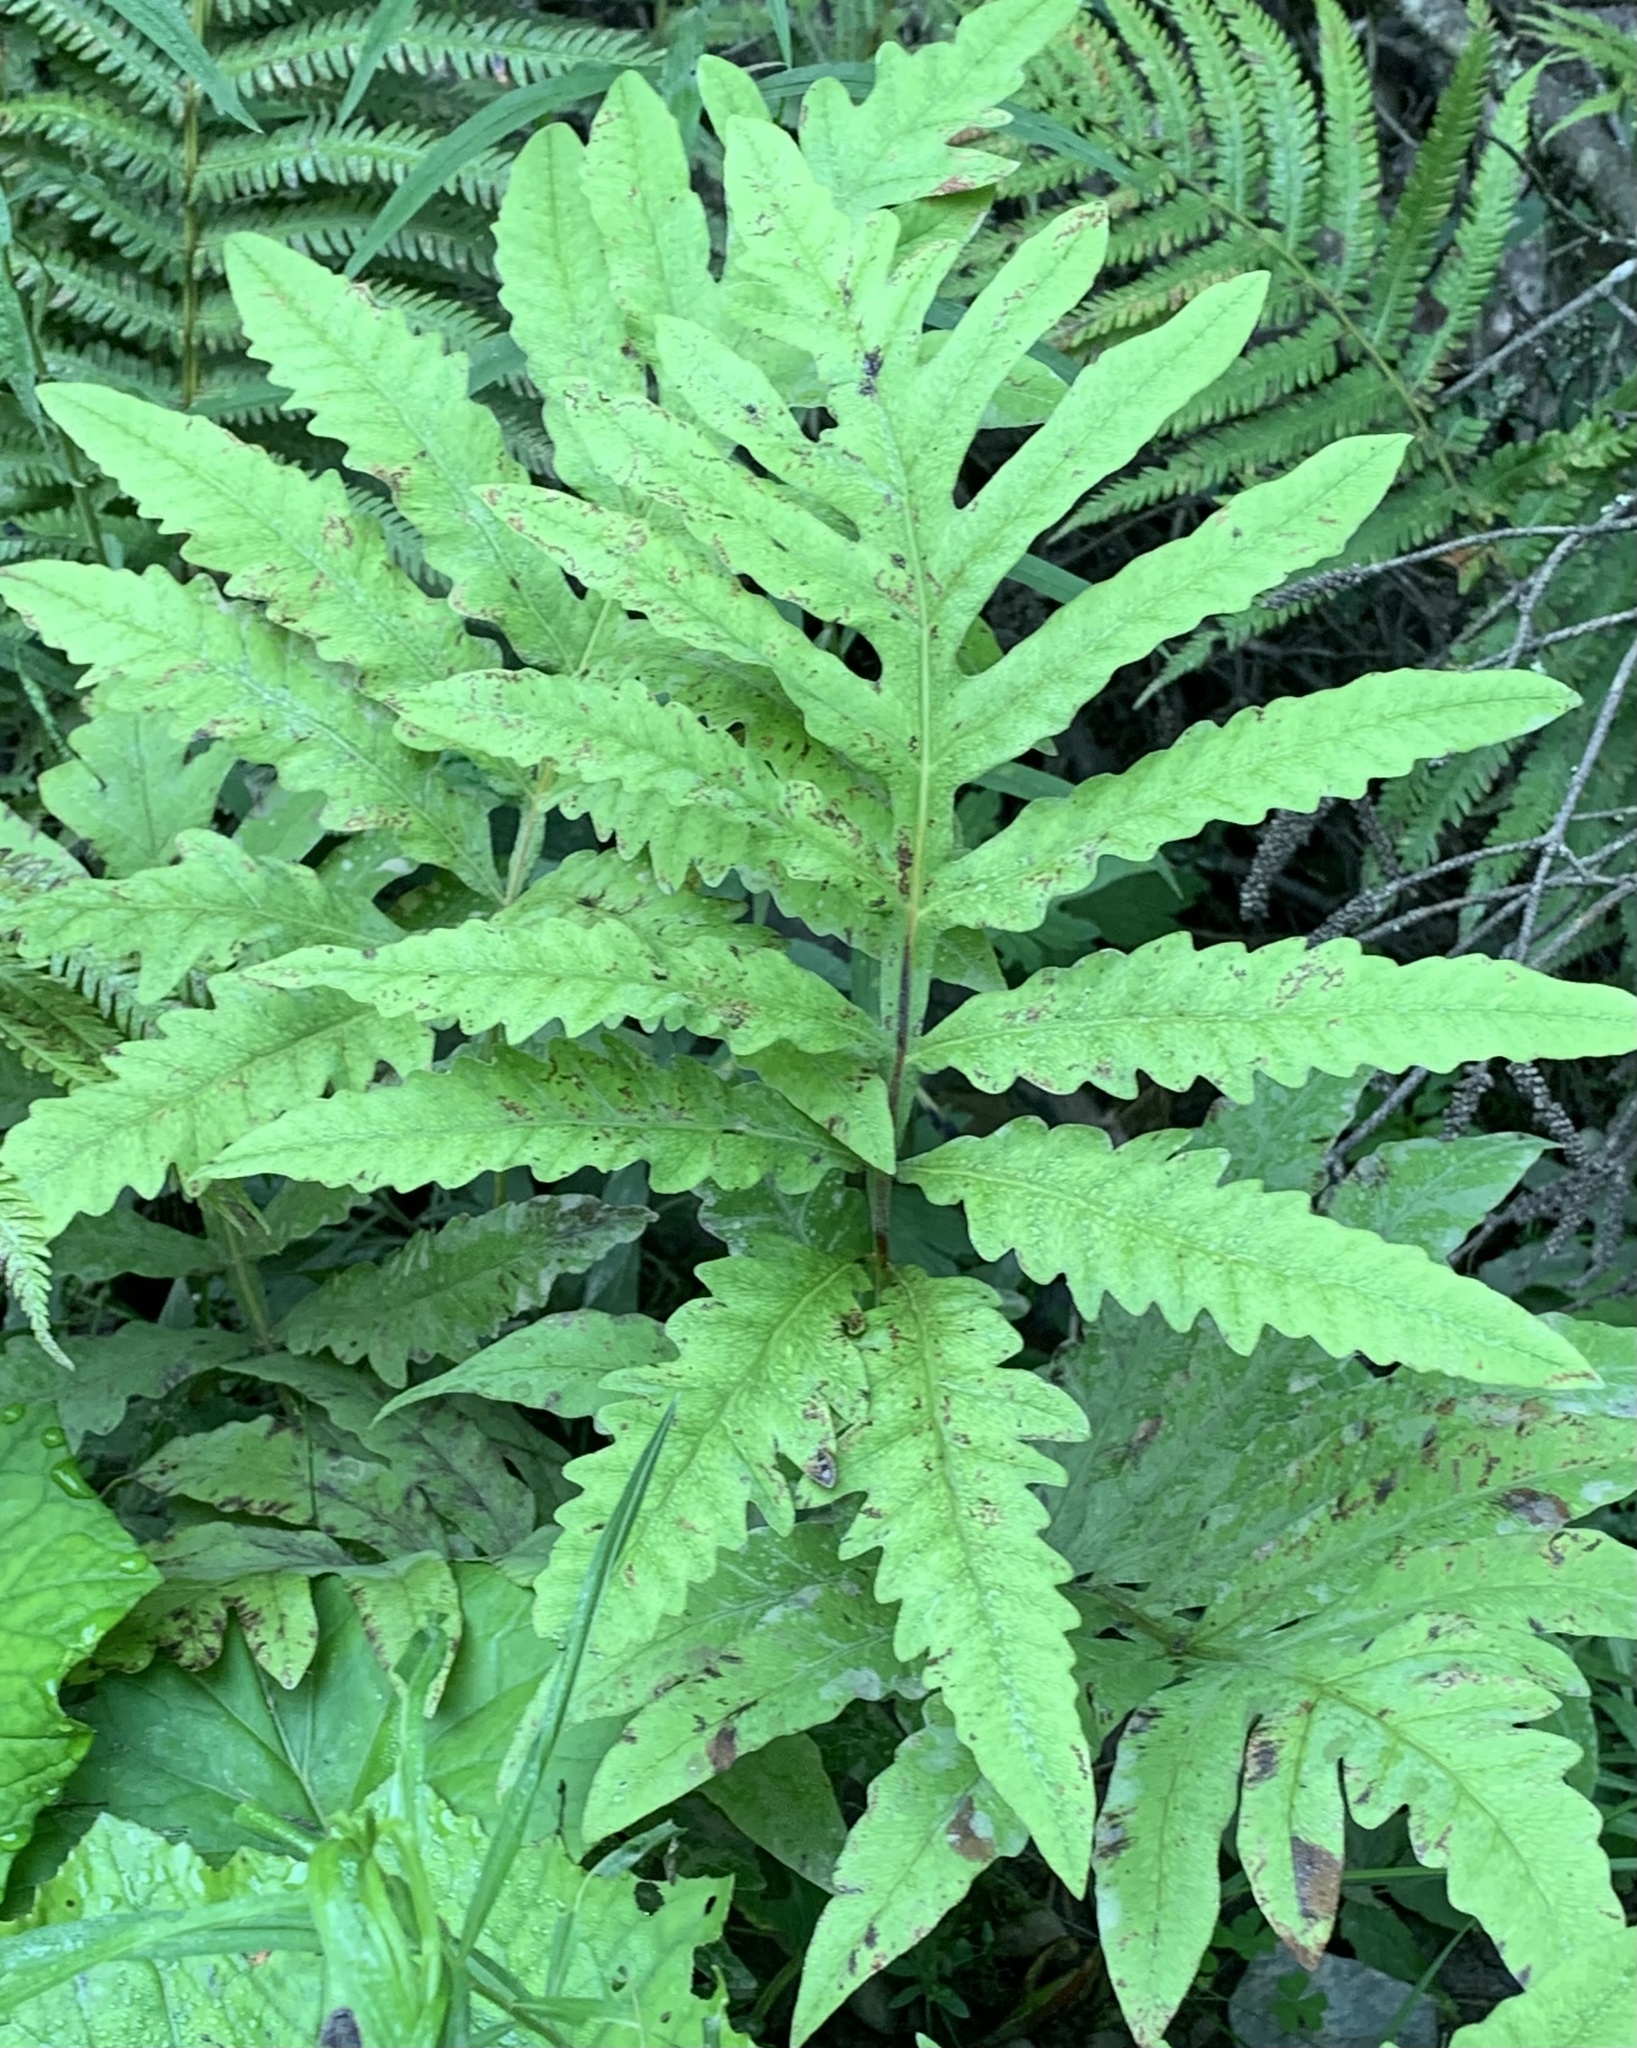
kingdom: Plantae
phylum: Tracheophyta
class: Polypodiopsida
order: Polypodiales
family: Onocleaceae
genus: Onoclea
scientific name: Onoclea sensibilis
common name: Sensitive fern
